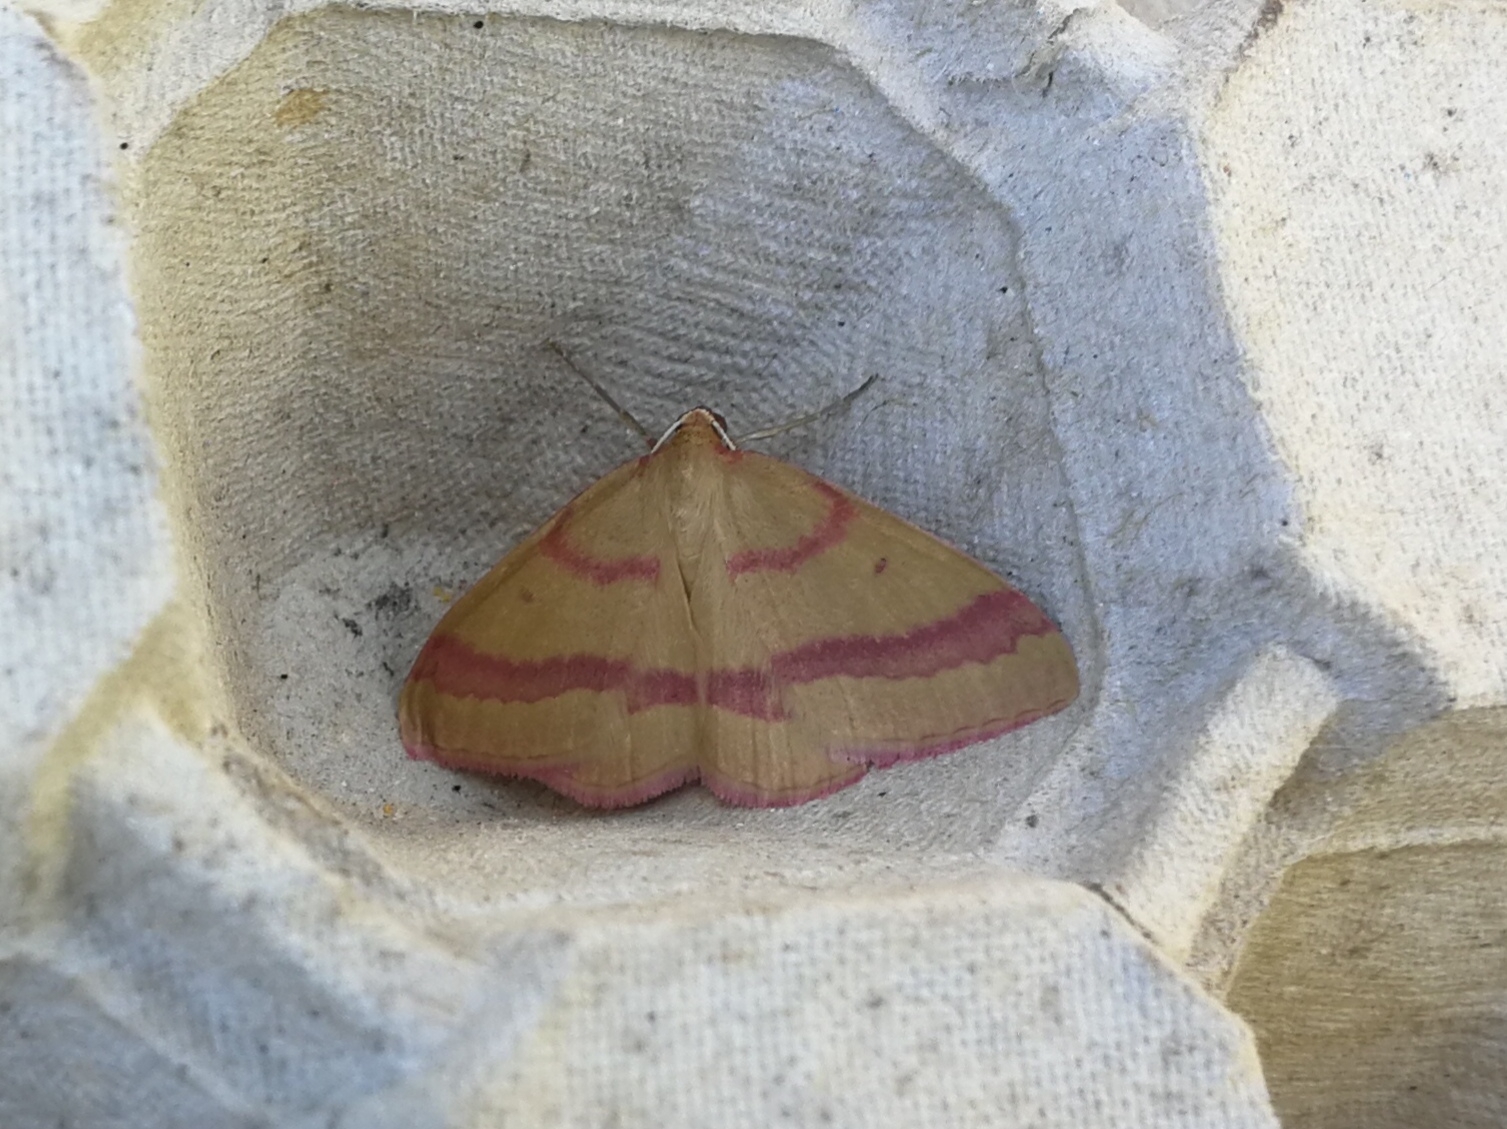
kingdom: Animalia
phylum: Arthropoda
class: Insecta
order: Lepidoptera
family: Geometridae
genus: Rhodostrophia
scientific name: Rhodostrophia calabra
